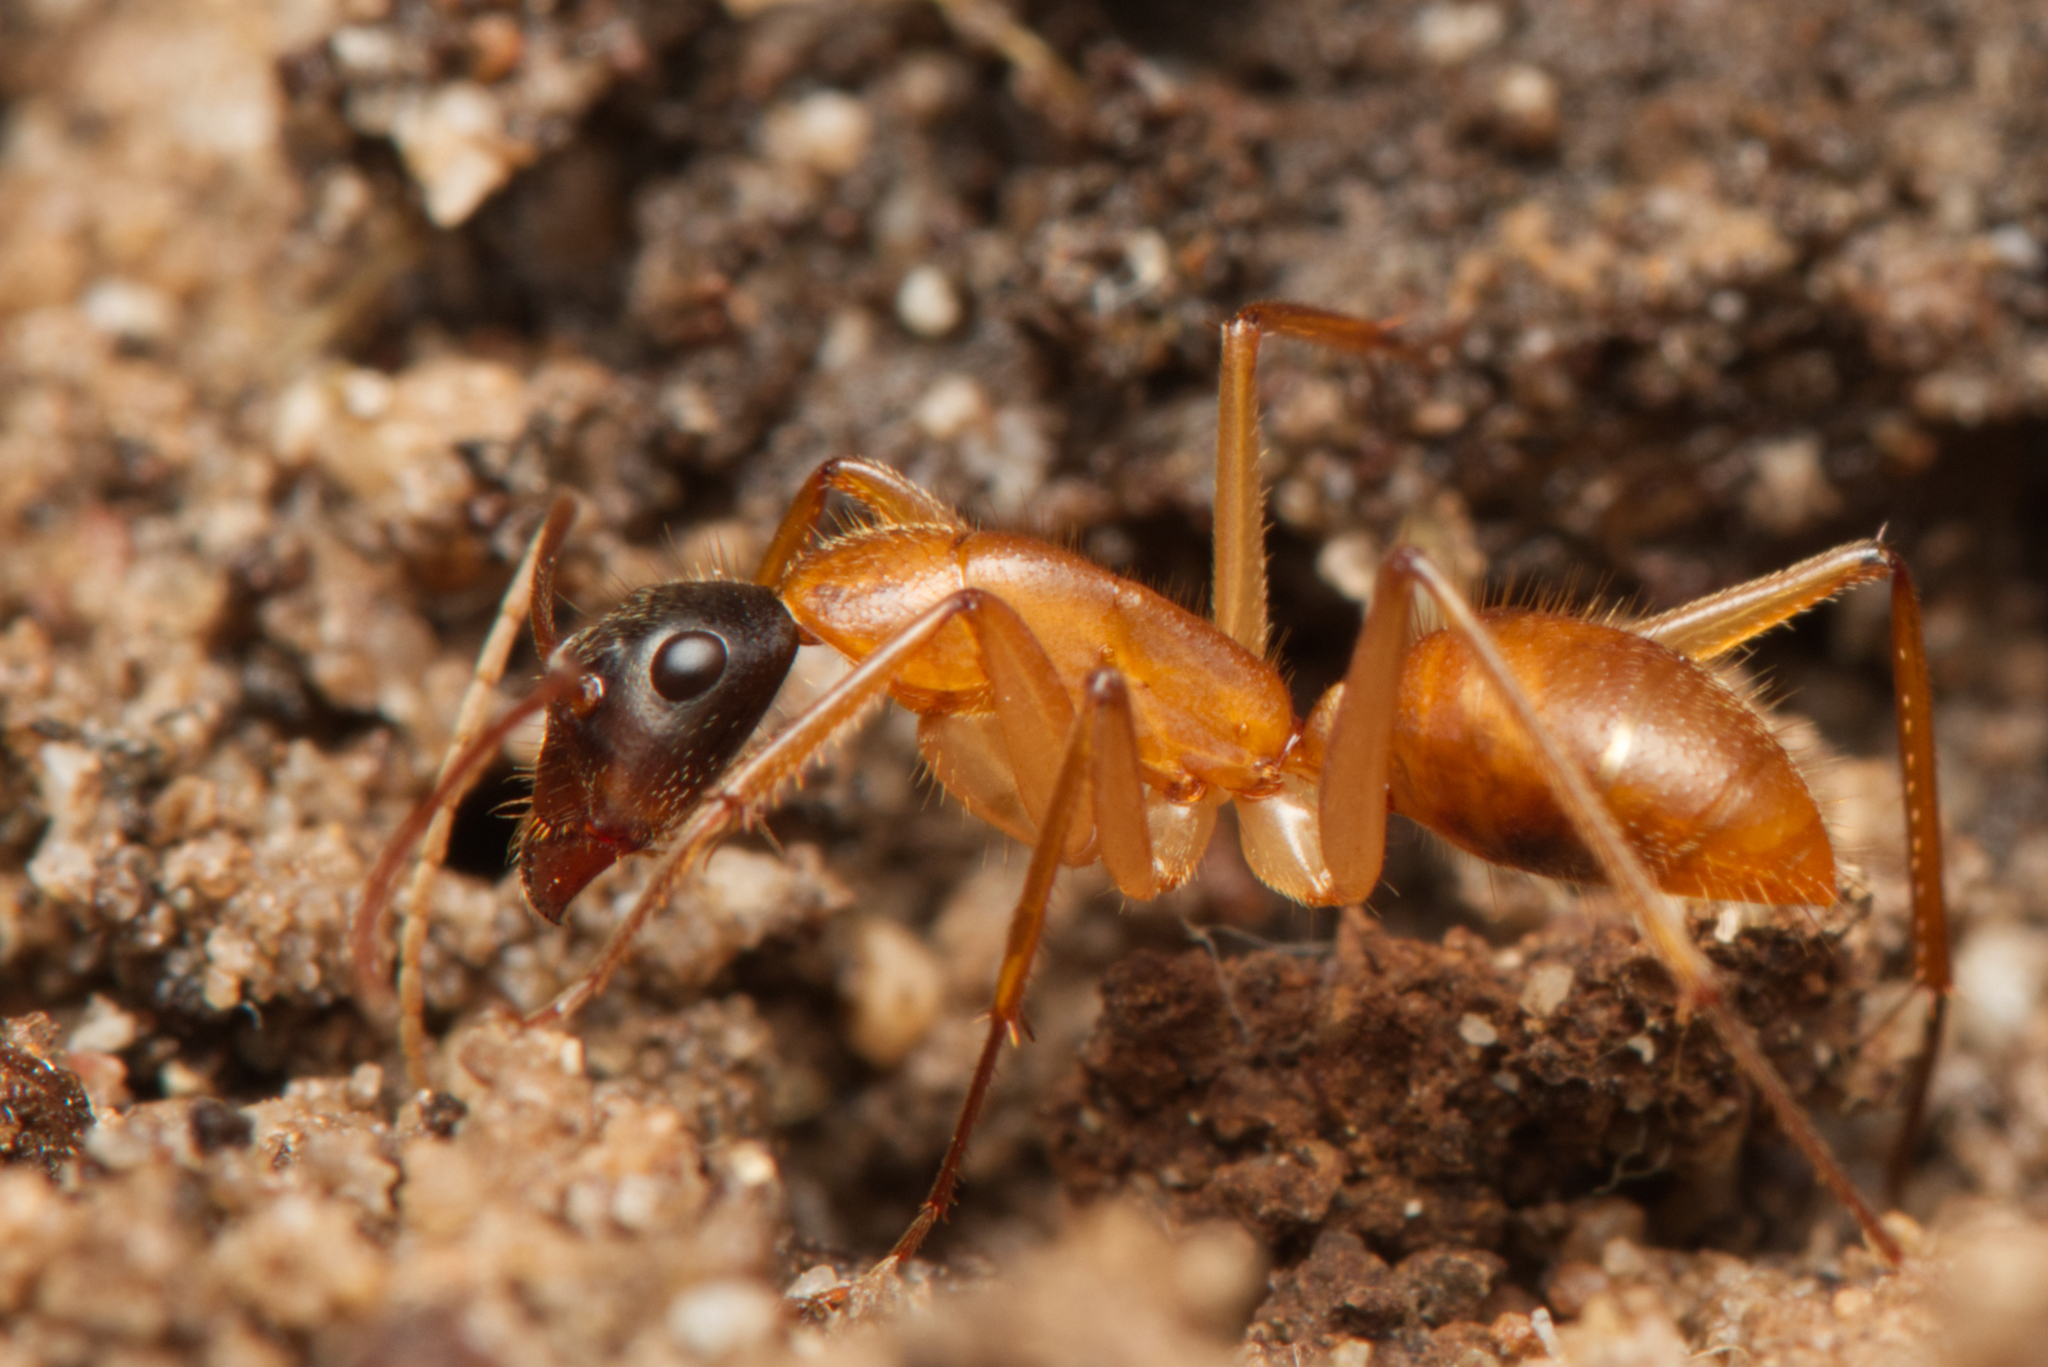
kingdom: Animalia
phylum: Arthropoda
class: Insecta
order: Hymenoptera
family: Formicidae
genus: Camponotus
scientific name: Camponotus eastwoodi
